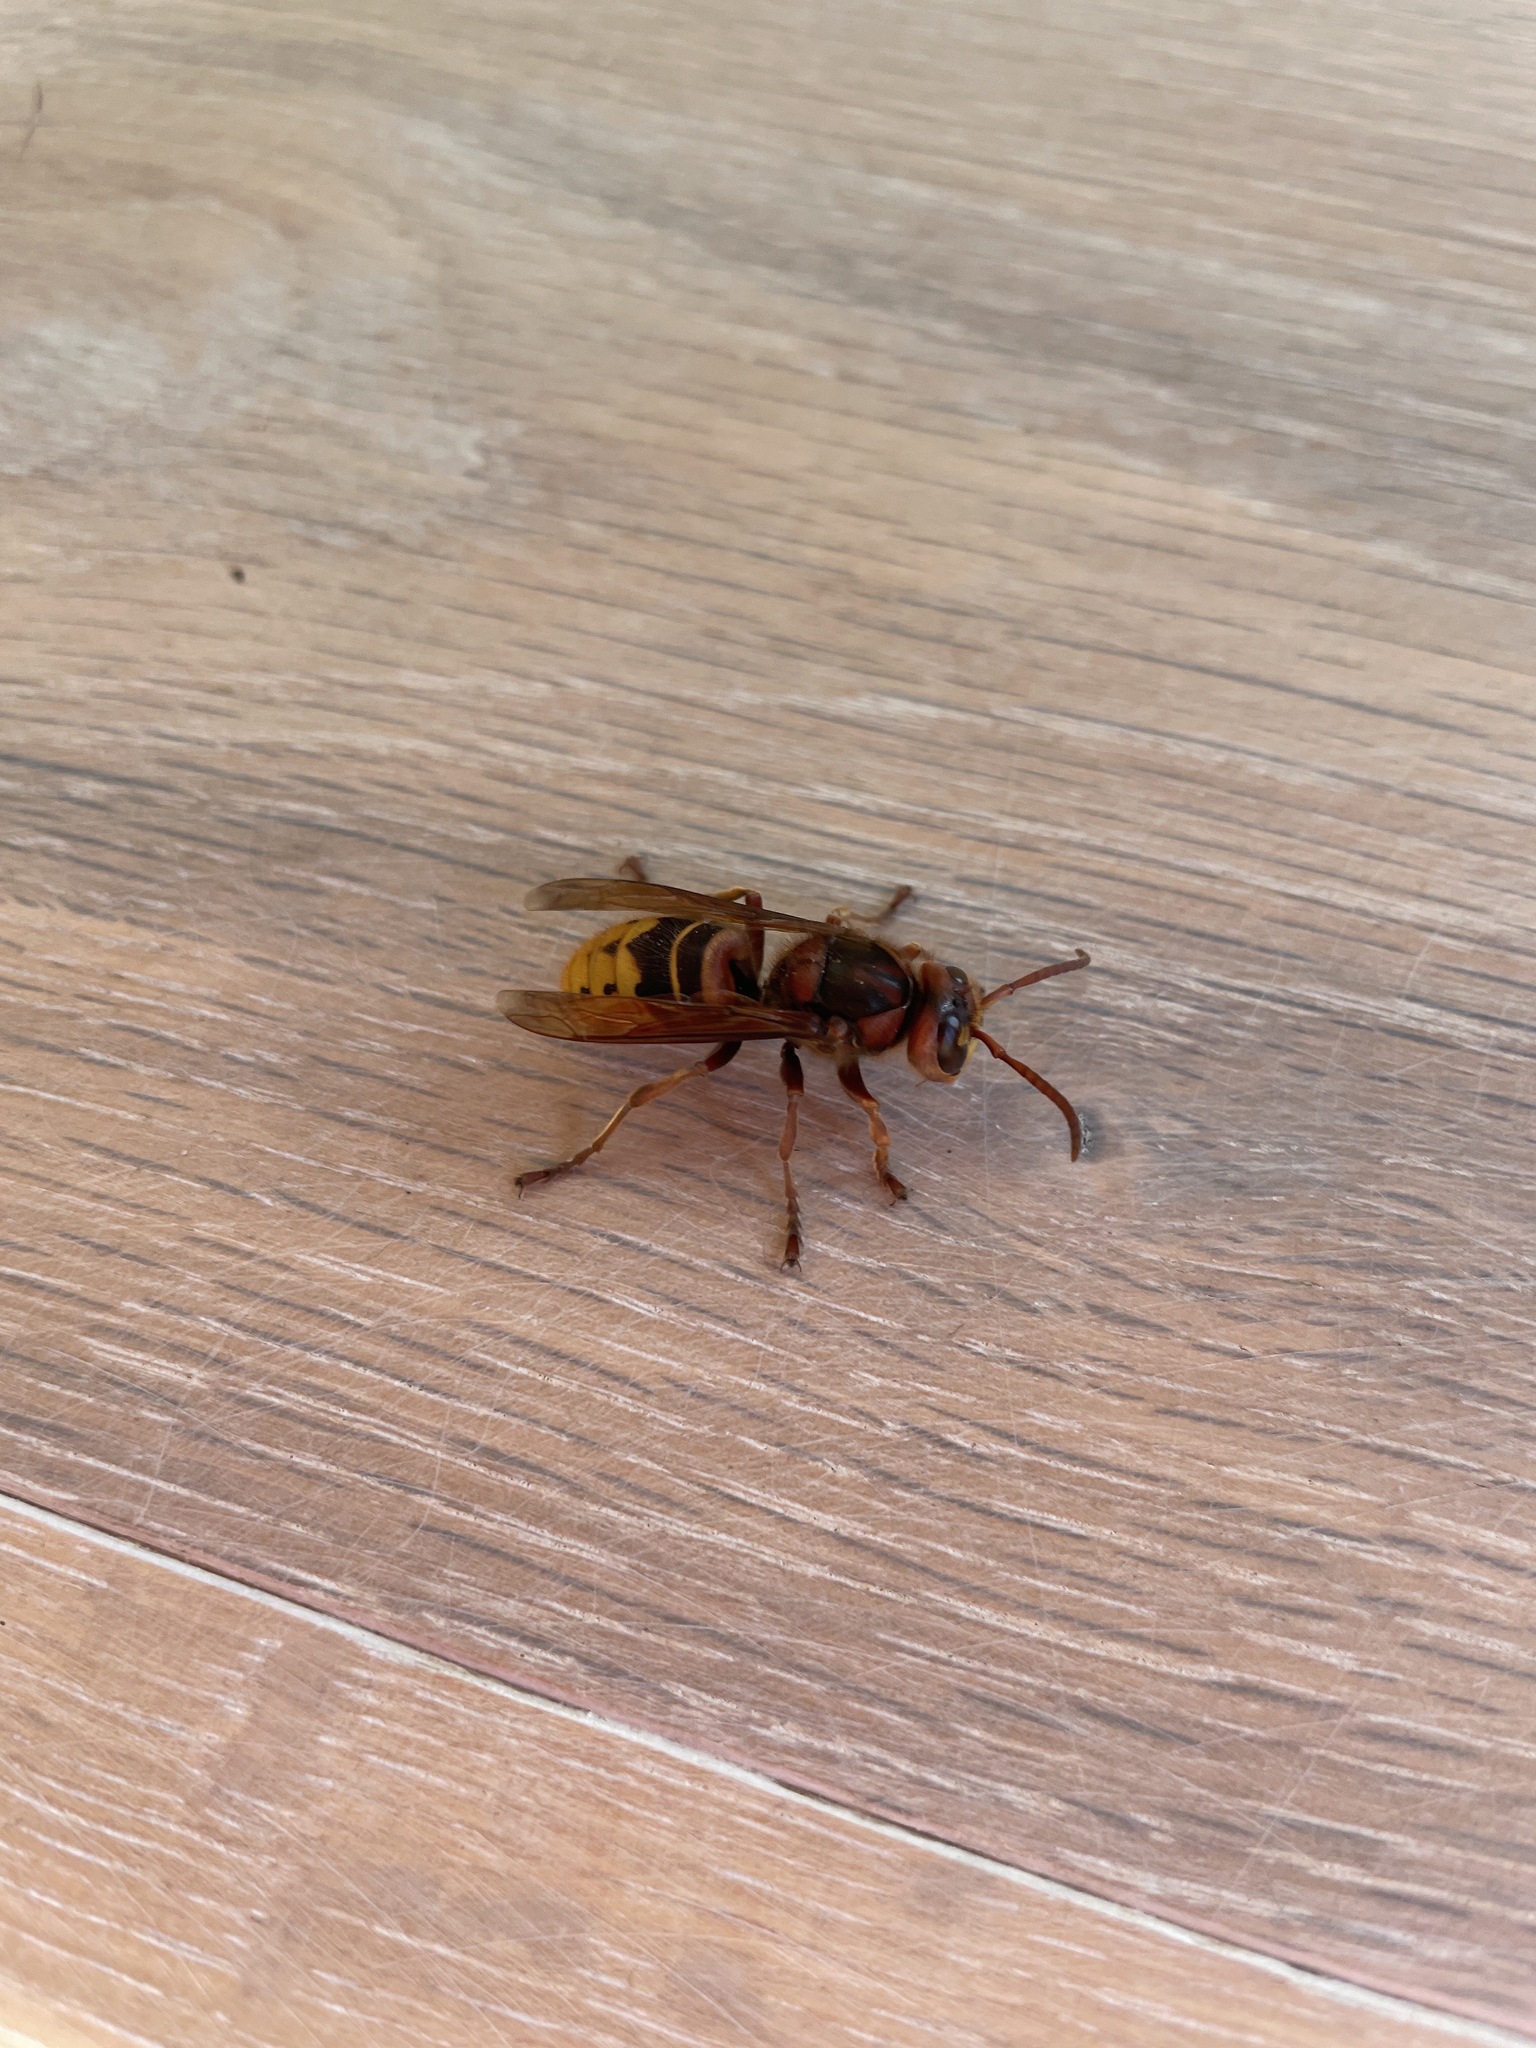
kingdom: Animalia
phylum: Arthropoda
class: Insecta
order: Hymenoptera
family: Vespidae
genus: Vespa
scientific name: Vespa crabro
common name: Hornet
